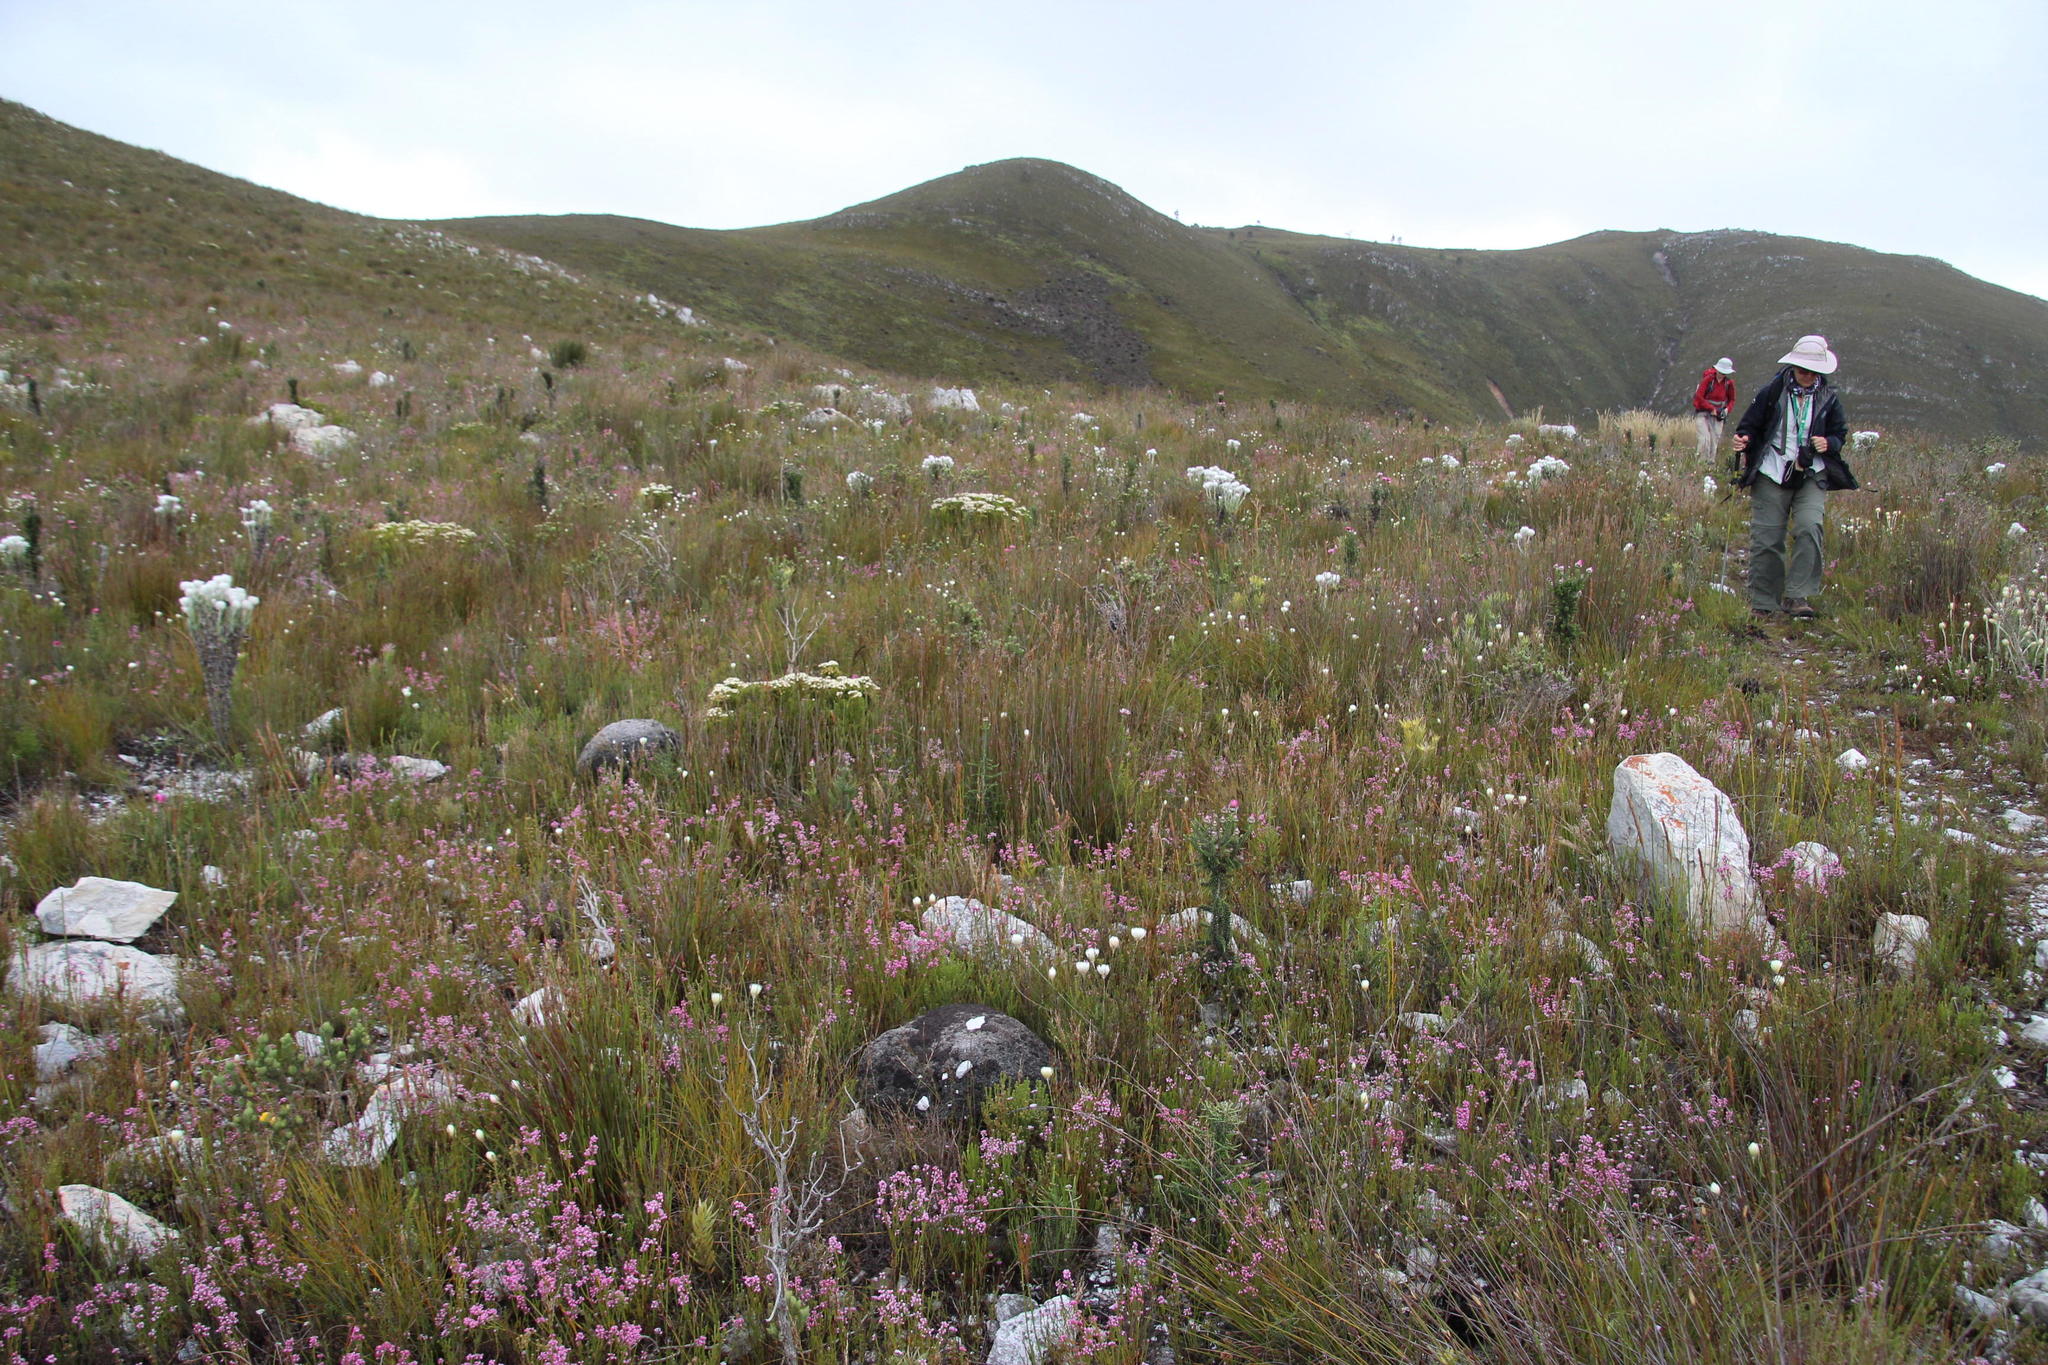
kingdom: Plantae
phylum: Tracheophyta
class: Magnoliopsida
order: Bruniales
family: Bruniaceae
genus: Brunia
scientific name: Brunia paleacea
